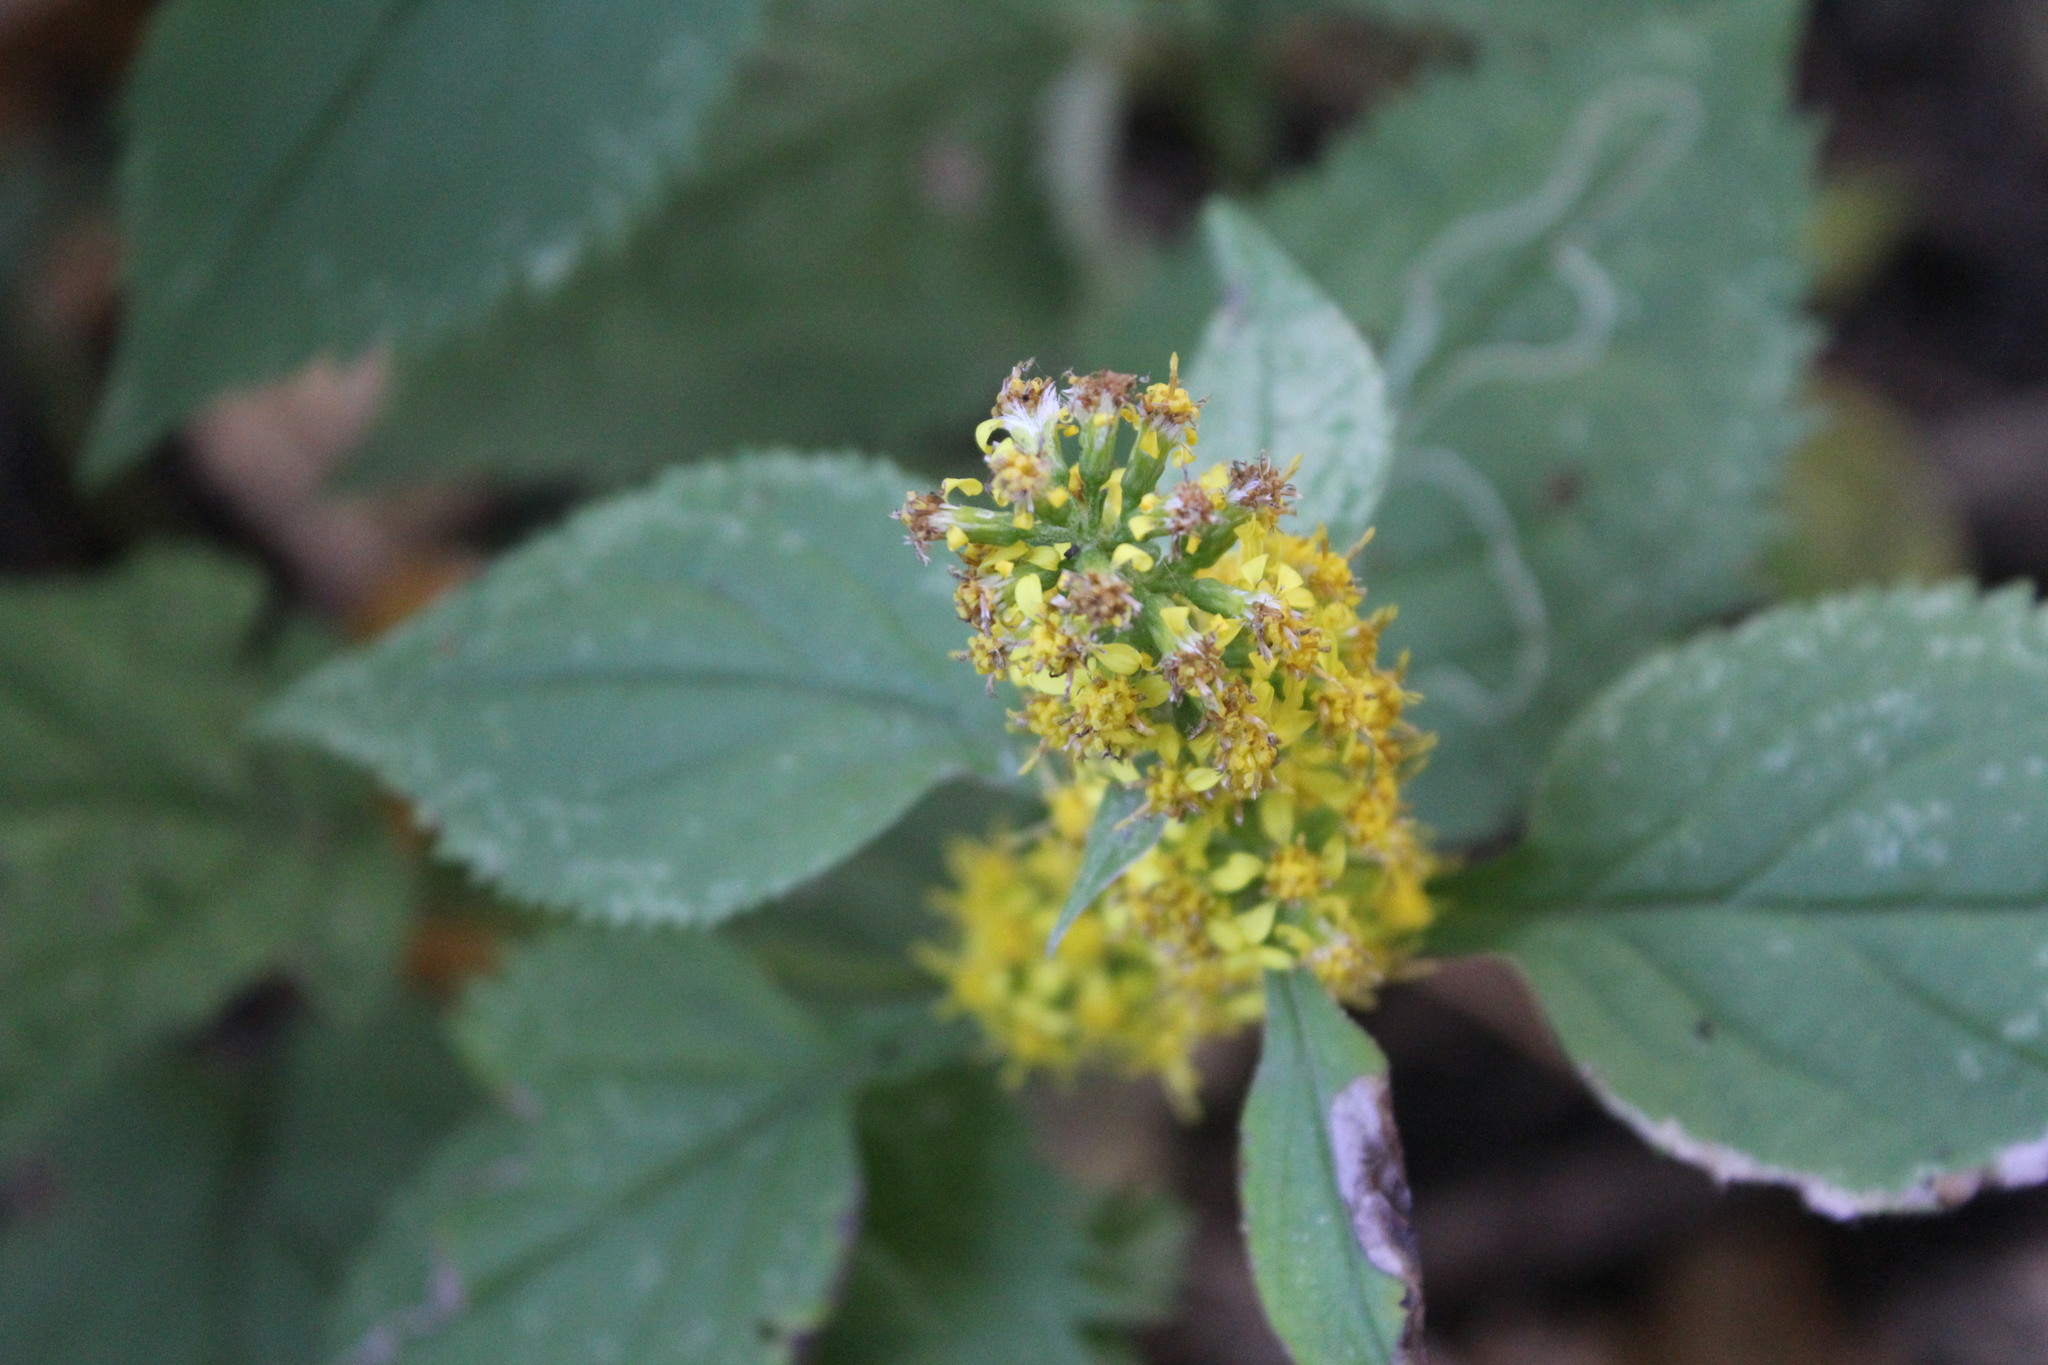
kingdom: Plantae
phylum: Tracheophyta
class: Magnoliopsida
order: Asterales
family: Asteraceae
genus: Solidago
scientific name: Solidago flexicaulis
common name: Zig-zag goldenrod
